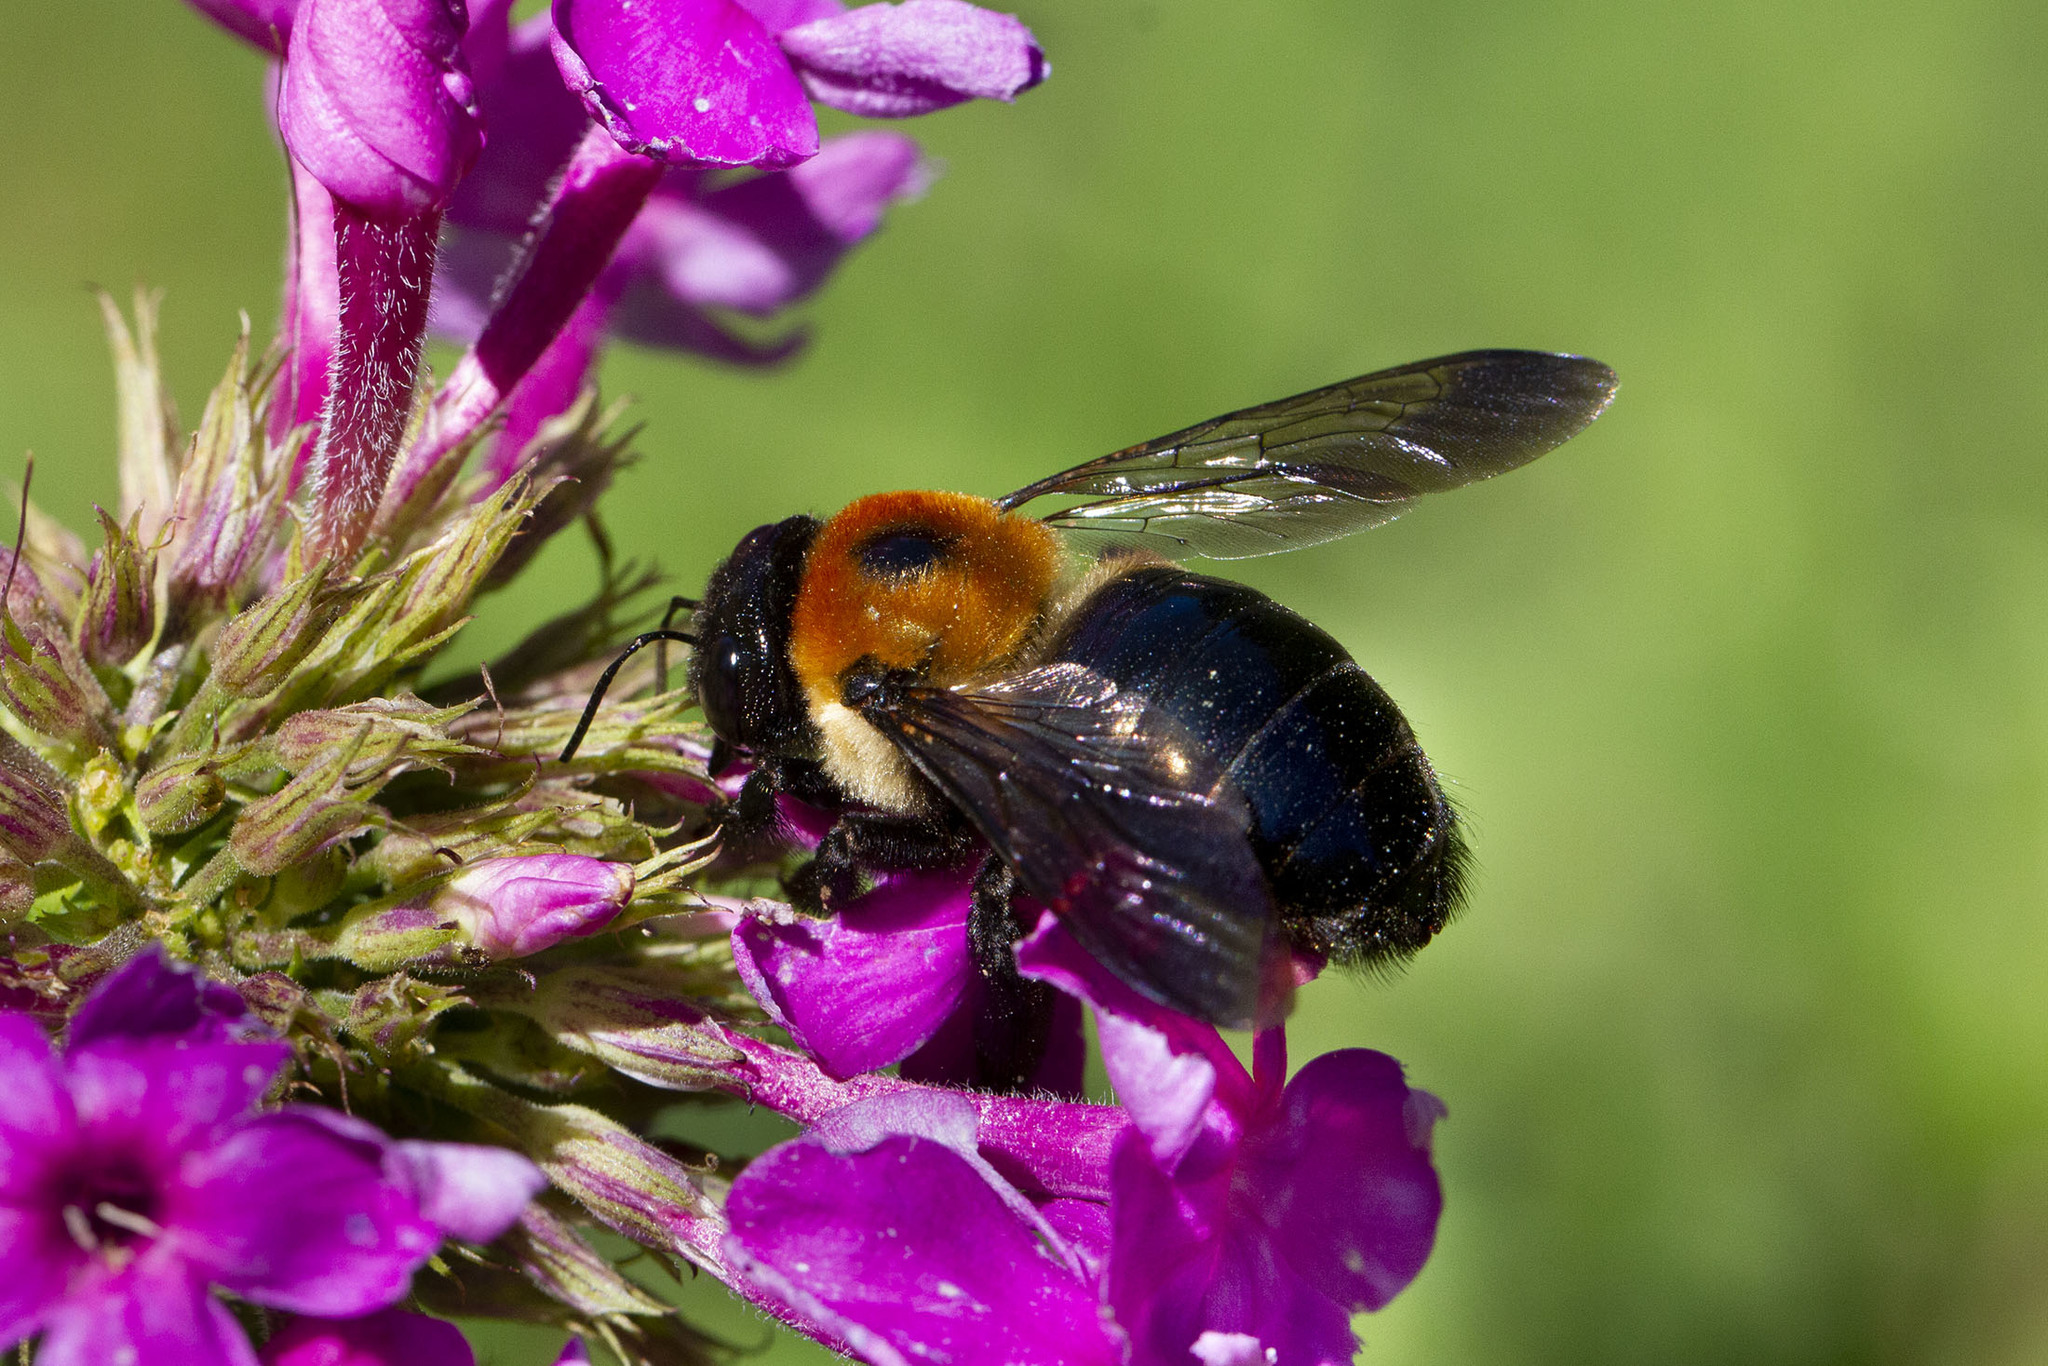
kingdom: Animalia
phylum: Arthropoda
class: Insecta
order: Hymenoptera
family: Apidae
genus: Xylocopa
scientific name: Xylocopa virginica
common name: Carpenter bee
